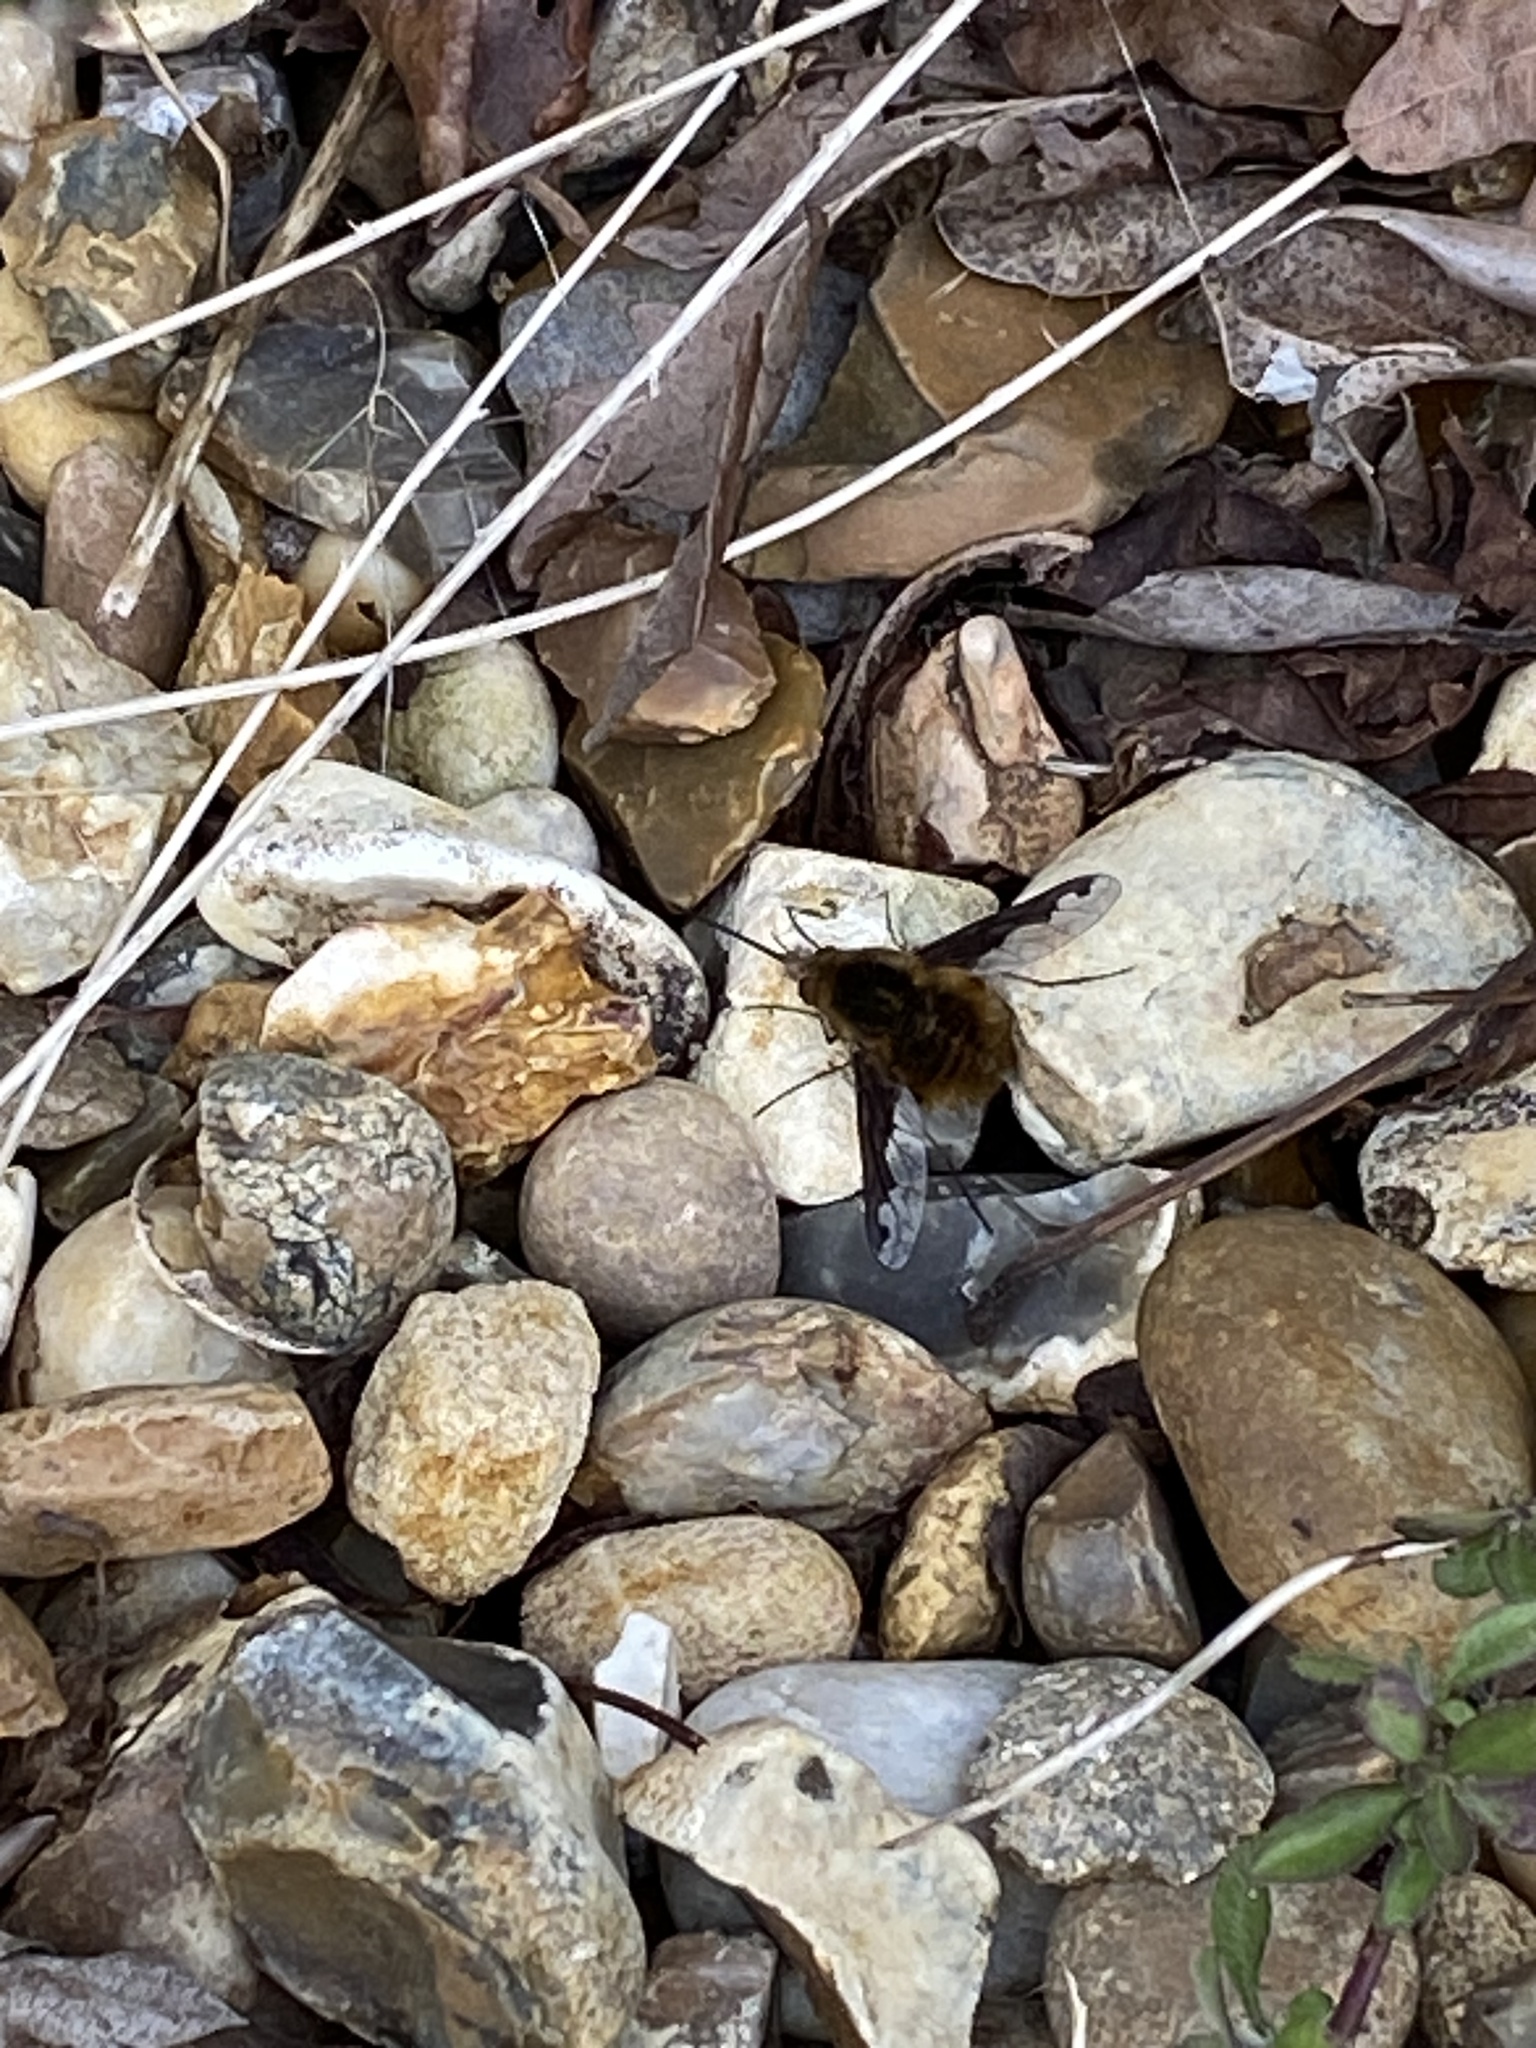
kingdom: Animalia
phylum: Arthropoda
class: Insecta
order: Diptera
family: Bombyliidae
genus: Bombylius
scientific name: Bombylius major
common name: Bee fly
